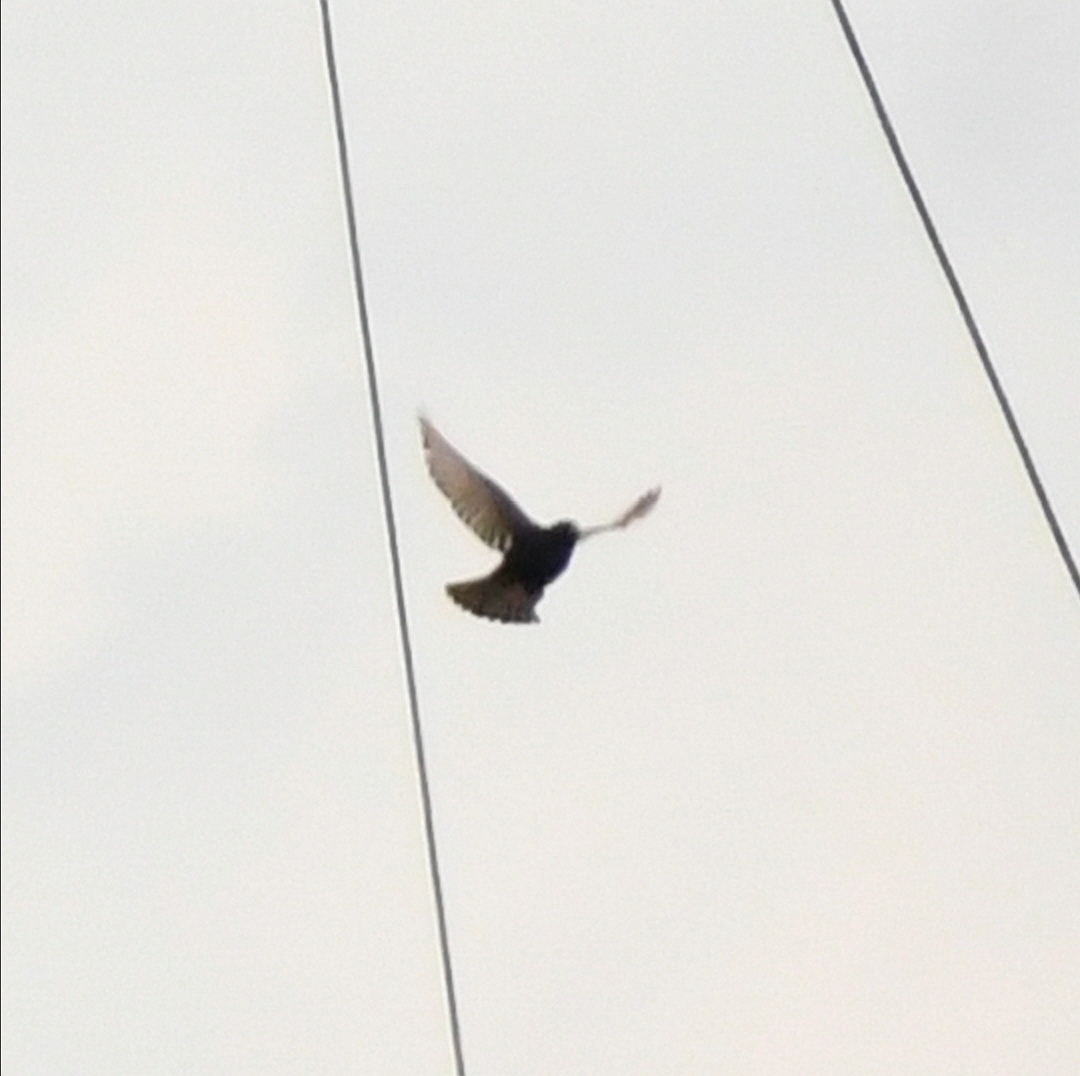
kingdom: Animalia
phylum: Chordata
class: Aves
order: Passeriformes
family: Sturnidae
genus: Sturnus
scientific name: Sturnus vulgaris
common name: Common starling
